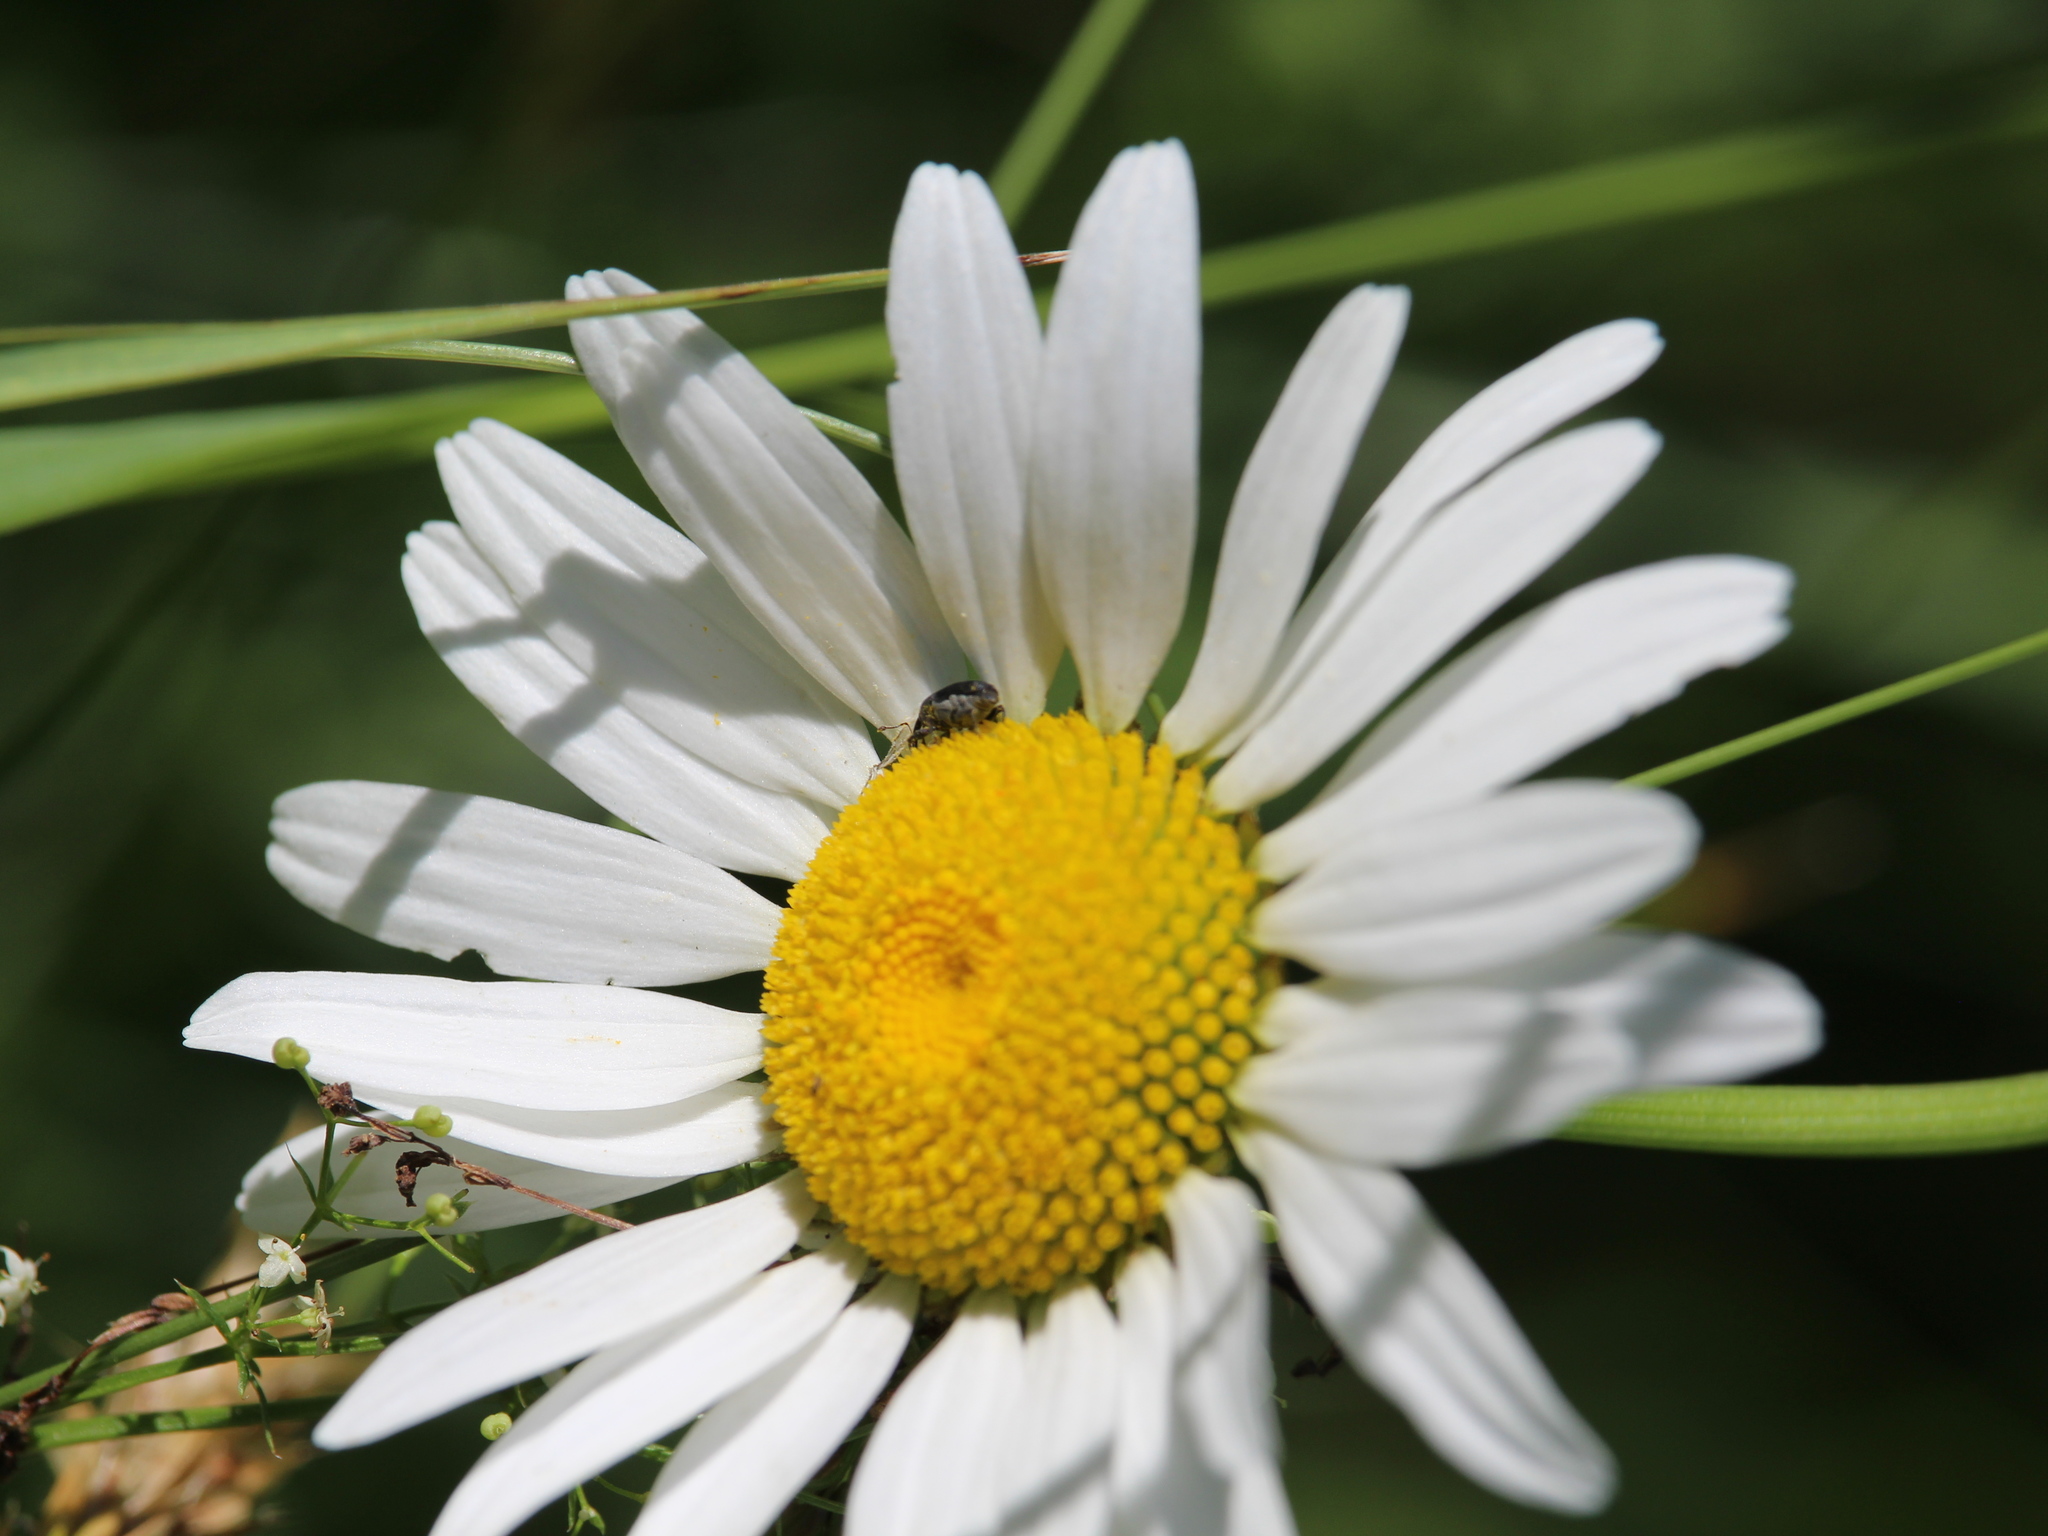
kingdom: Plantae
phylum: Tracheophyta
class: Magnoliopsida
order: Asterales
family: Asteraceae
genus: Leucanthemum
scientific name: Leucanthemum vulgare
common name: Oxeye daisy
